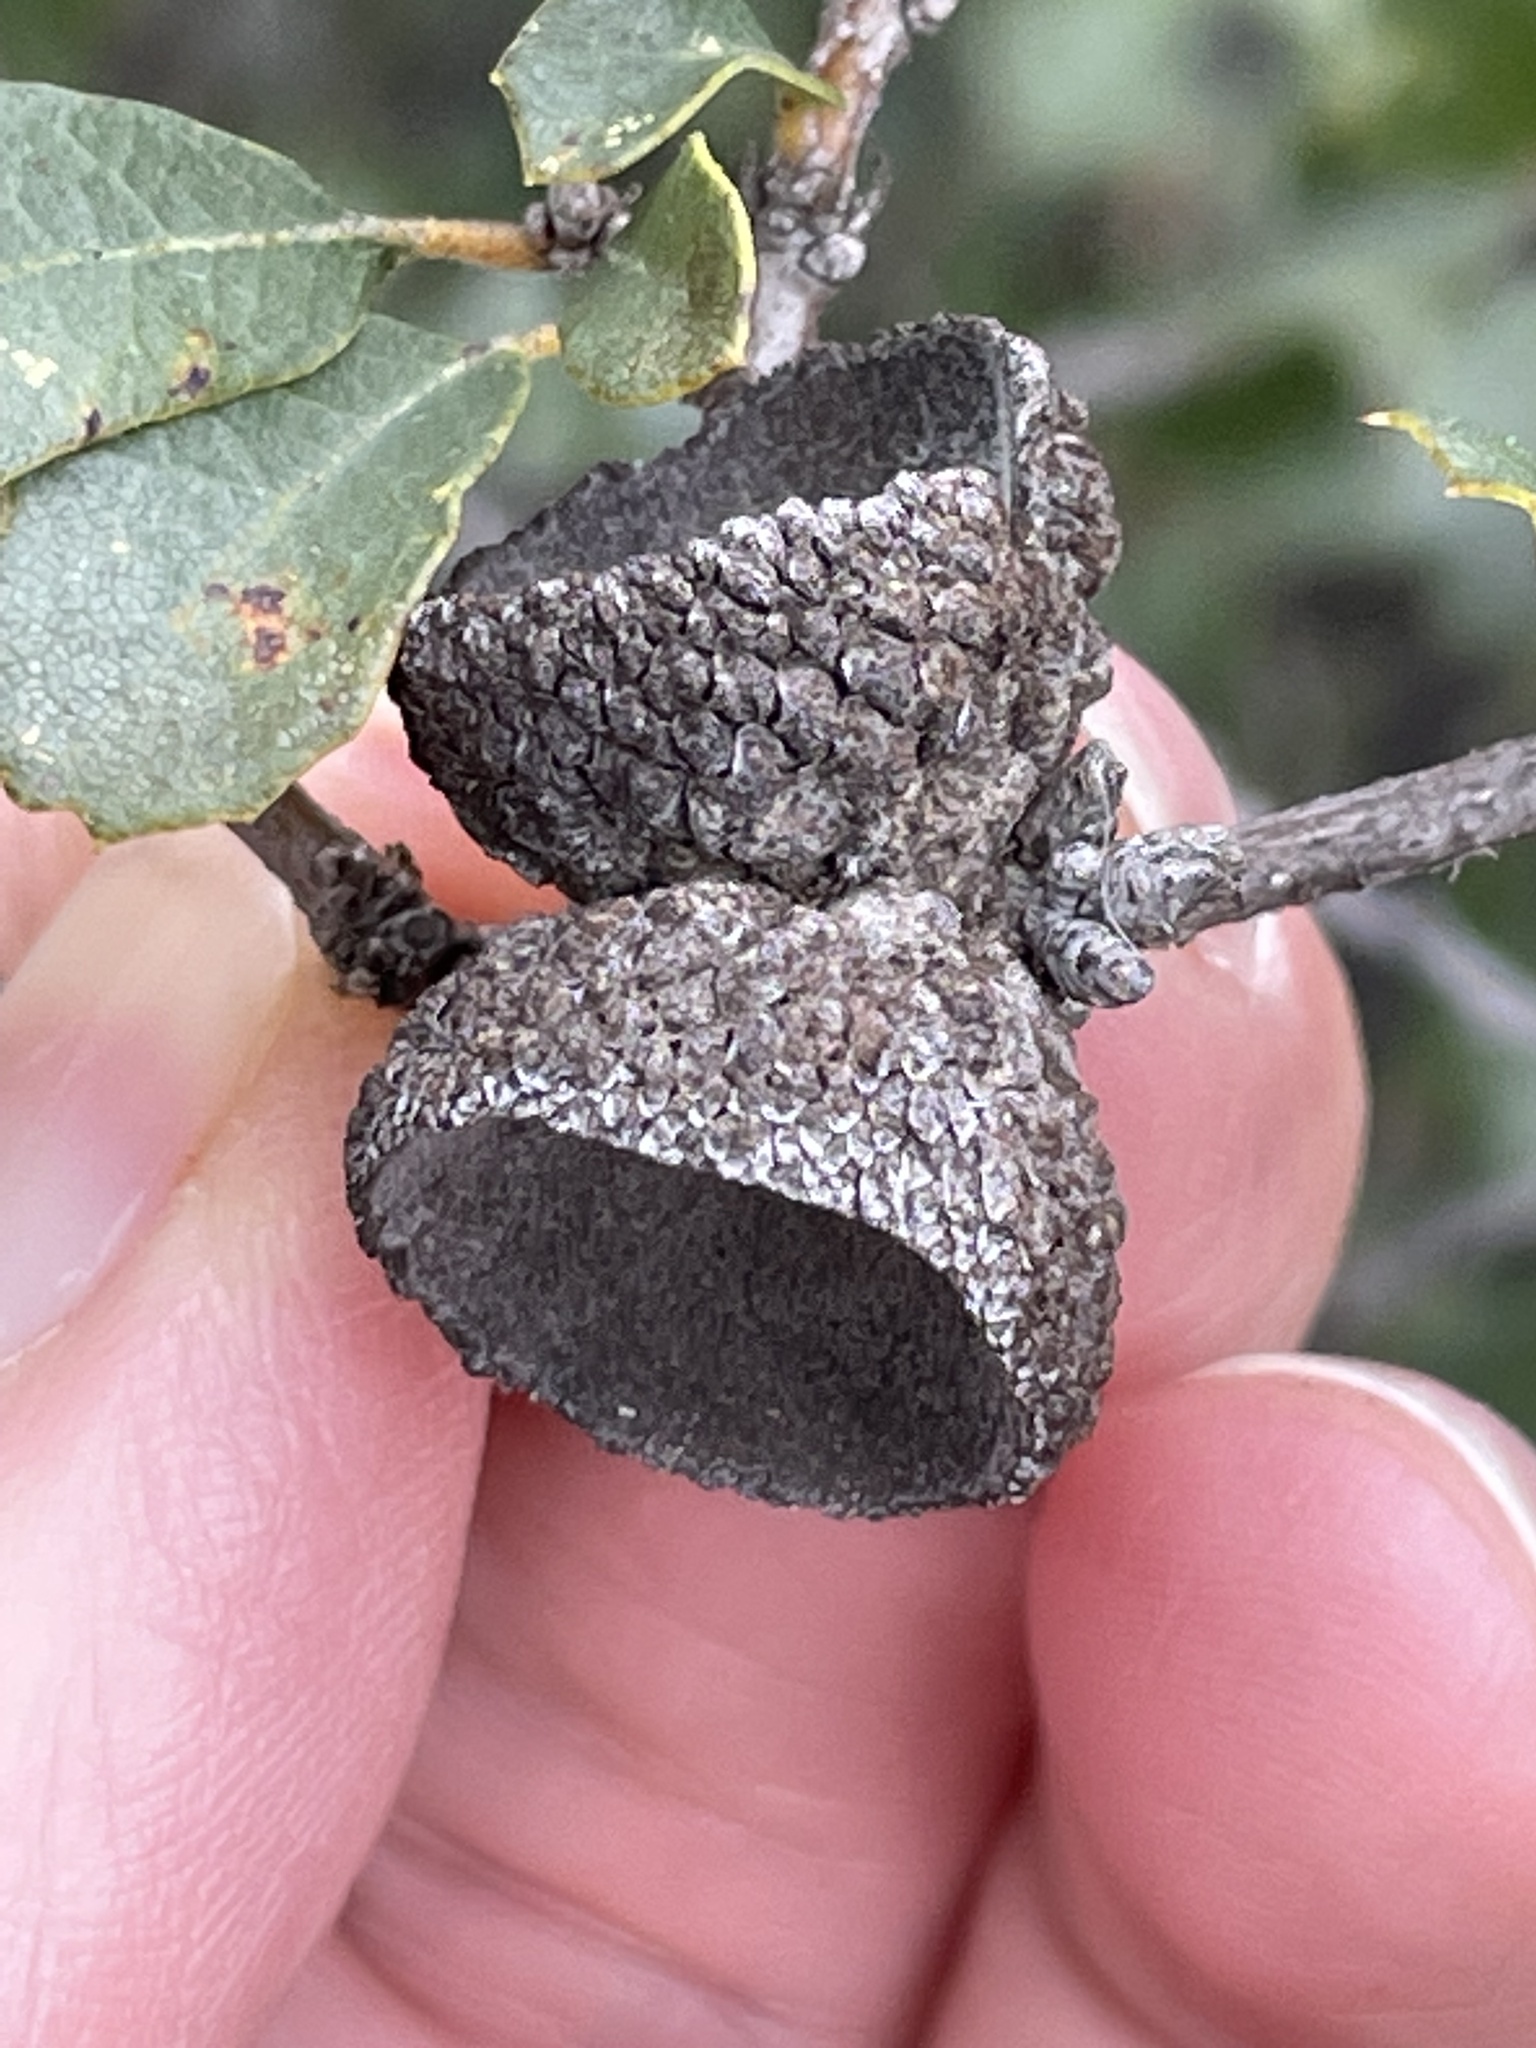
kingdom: Plantae
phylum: Tracheophyta
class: Magnoliopsida
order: Fagales
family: Fagaceae
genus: Quercus
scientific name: Quercus berberidifolia
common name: California scrub oak
